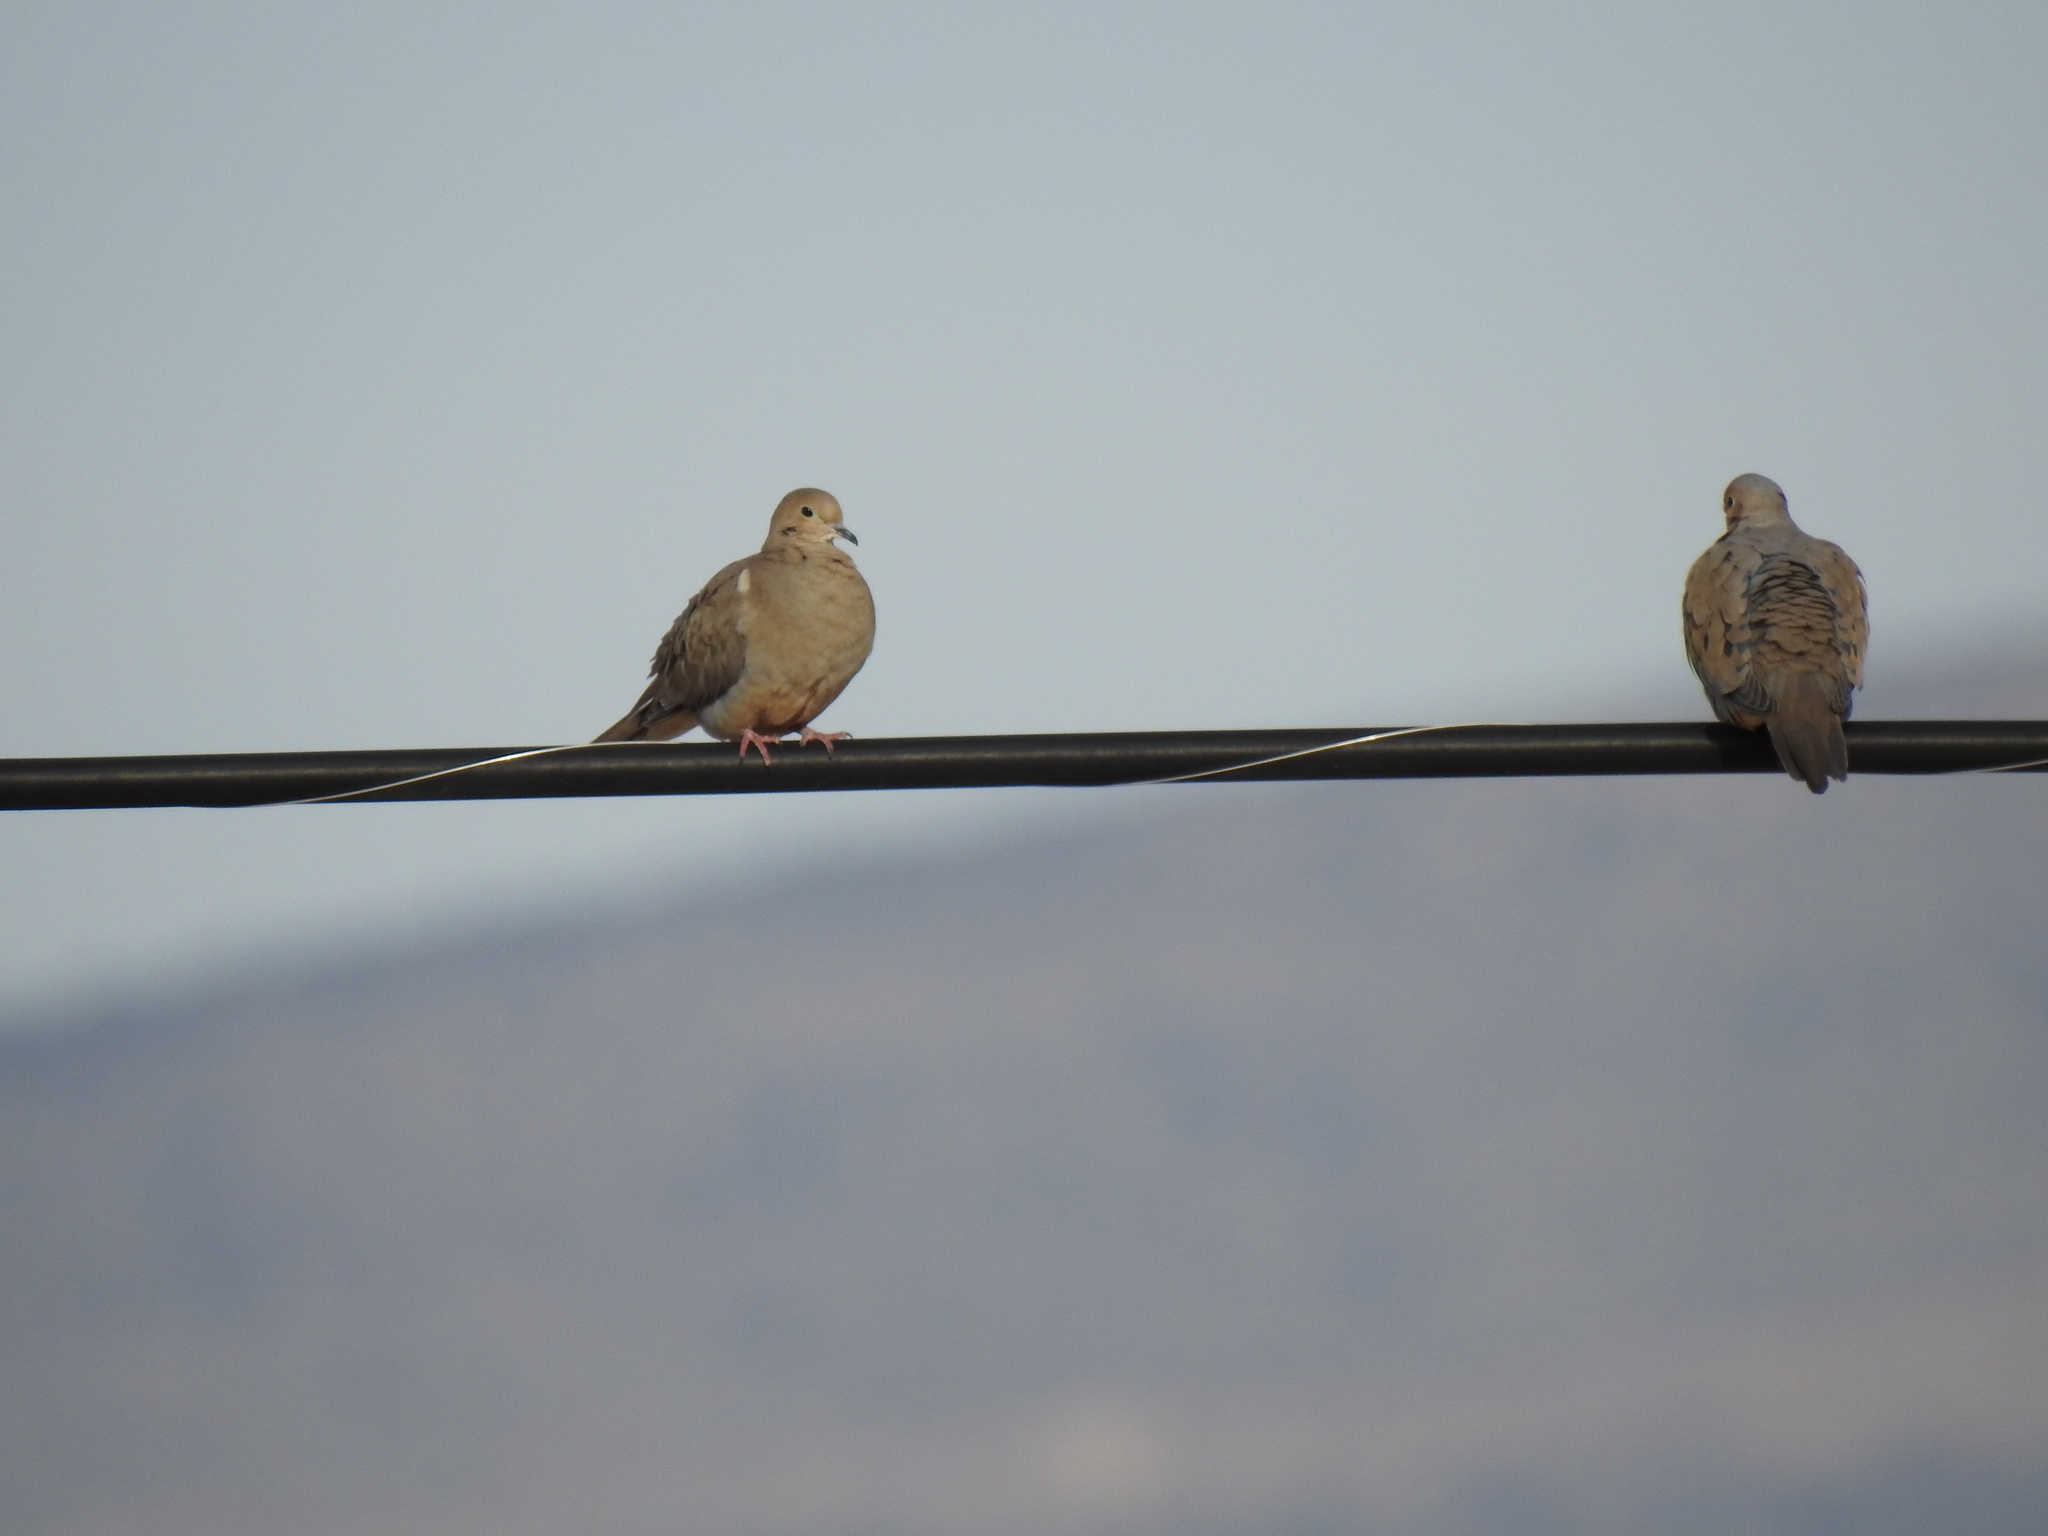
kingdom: Animalia
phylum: Chordata
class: Aves
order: Columbiformes
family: Columbidae
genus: Zenaida
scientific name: Zenaida macroura
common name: Mourning dove
